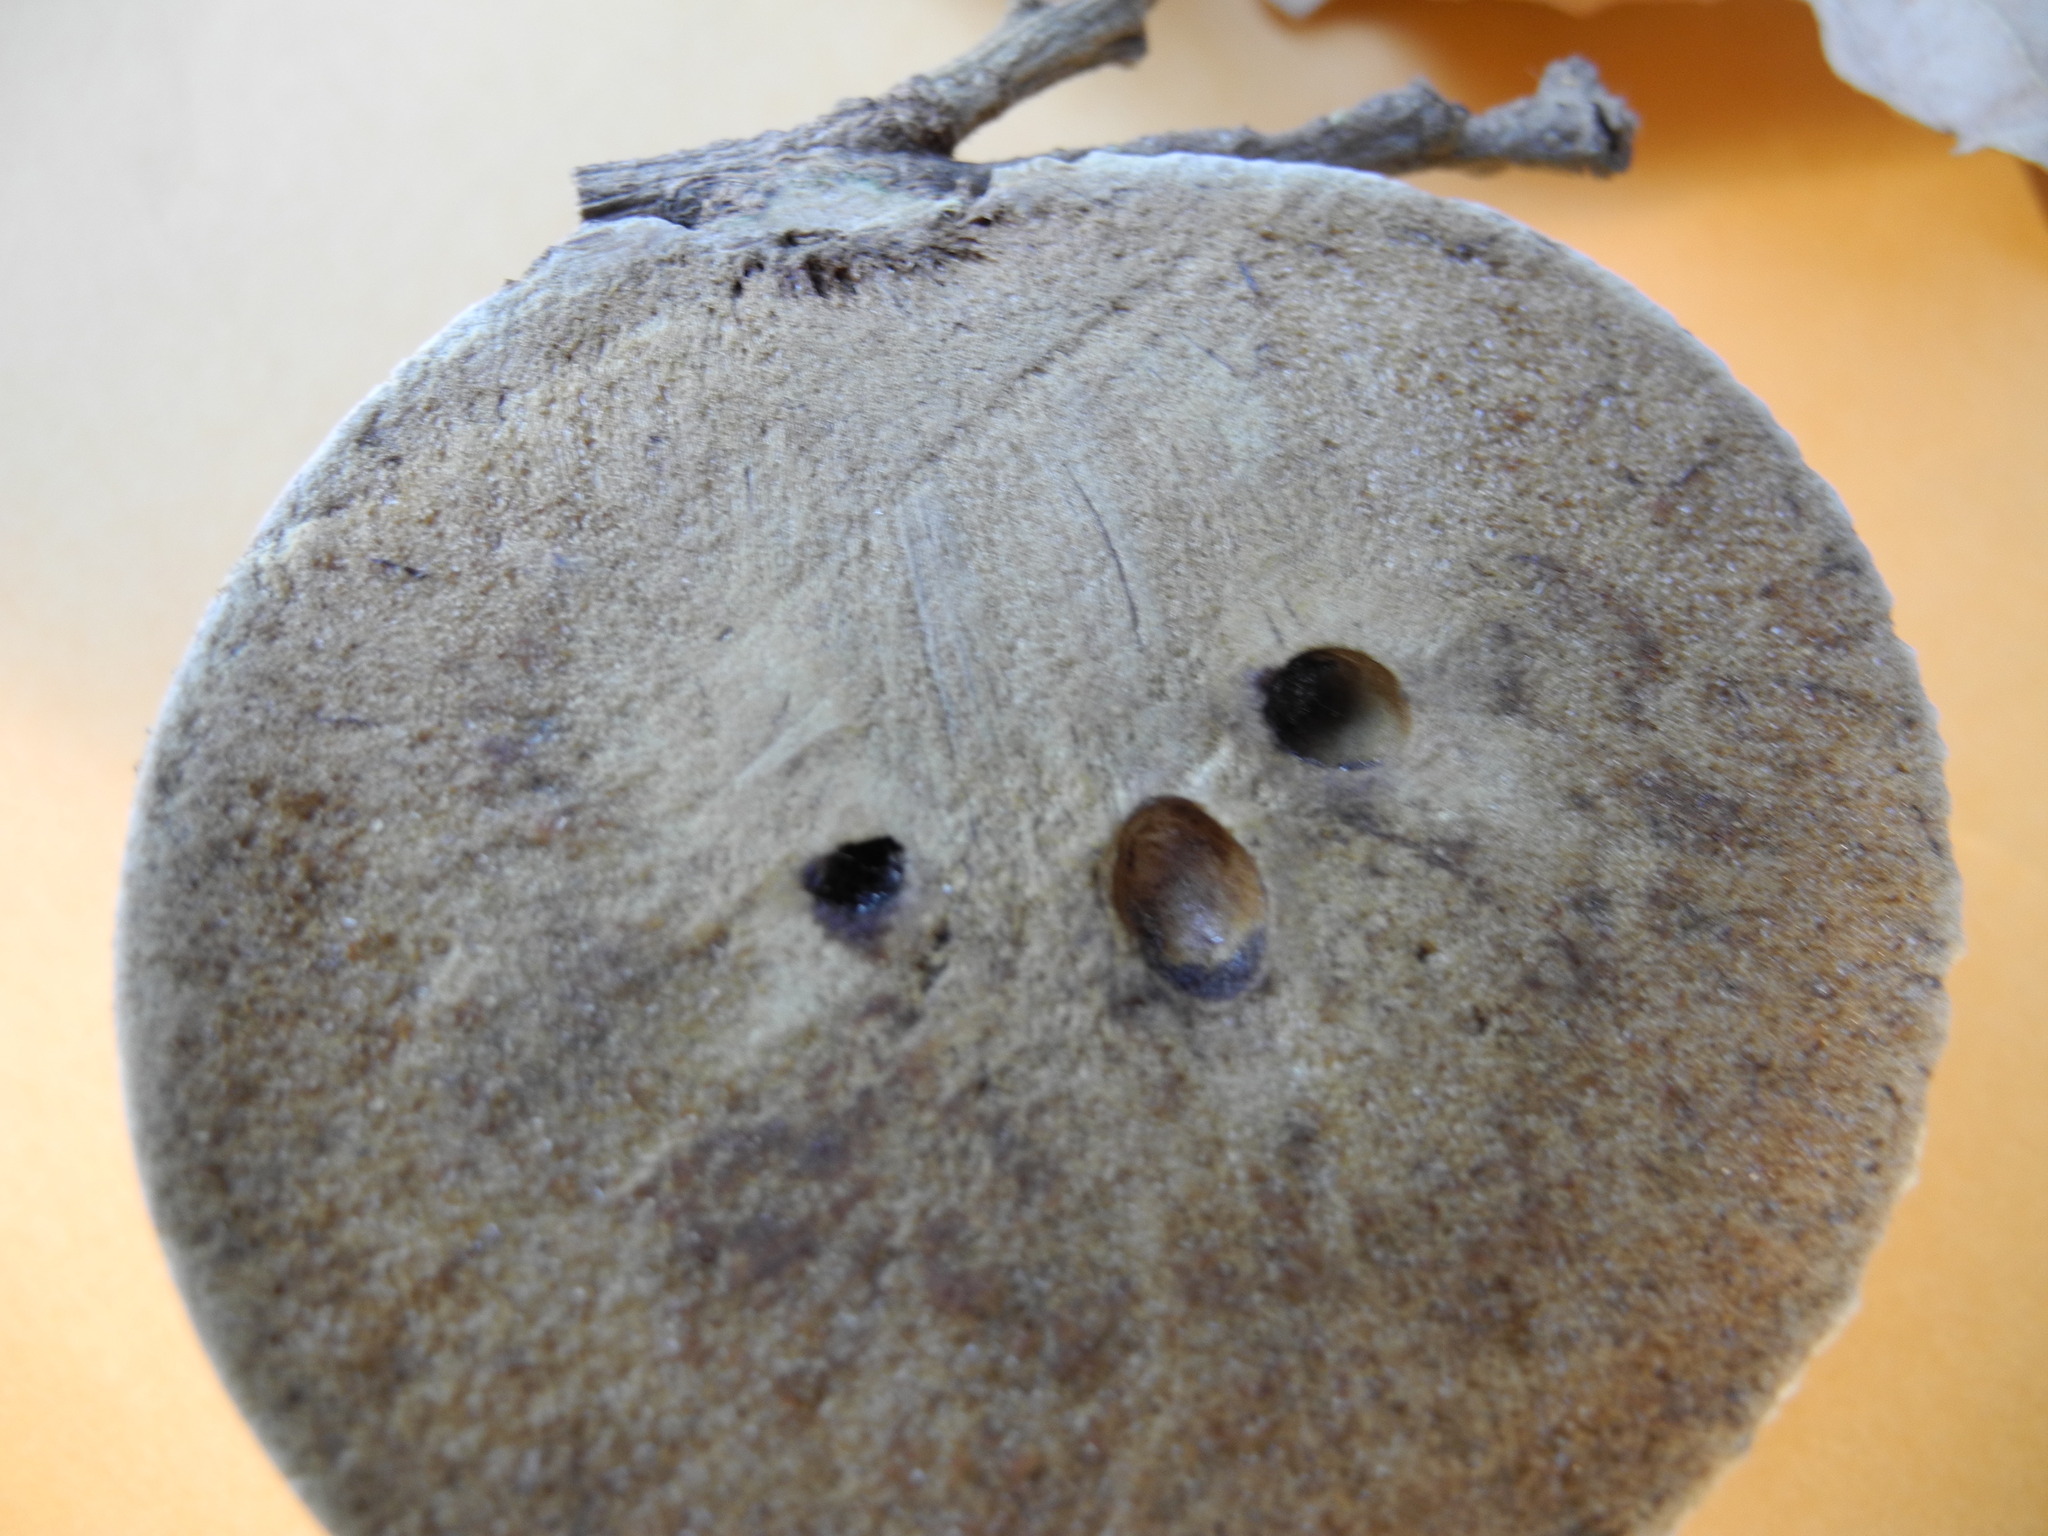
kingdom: Animalia
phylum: Arthropoda
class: Insecta
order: Hymenoptera
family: Cynipidae
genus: Andricus
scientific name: Andricus quercuscalifornicus
